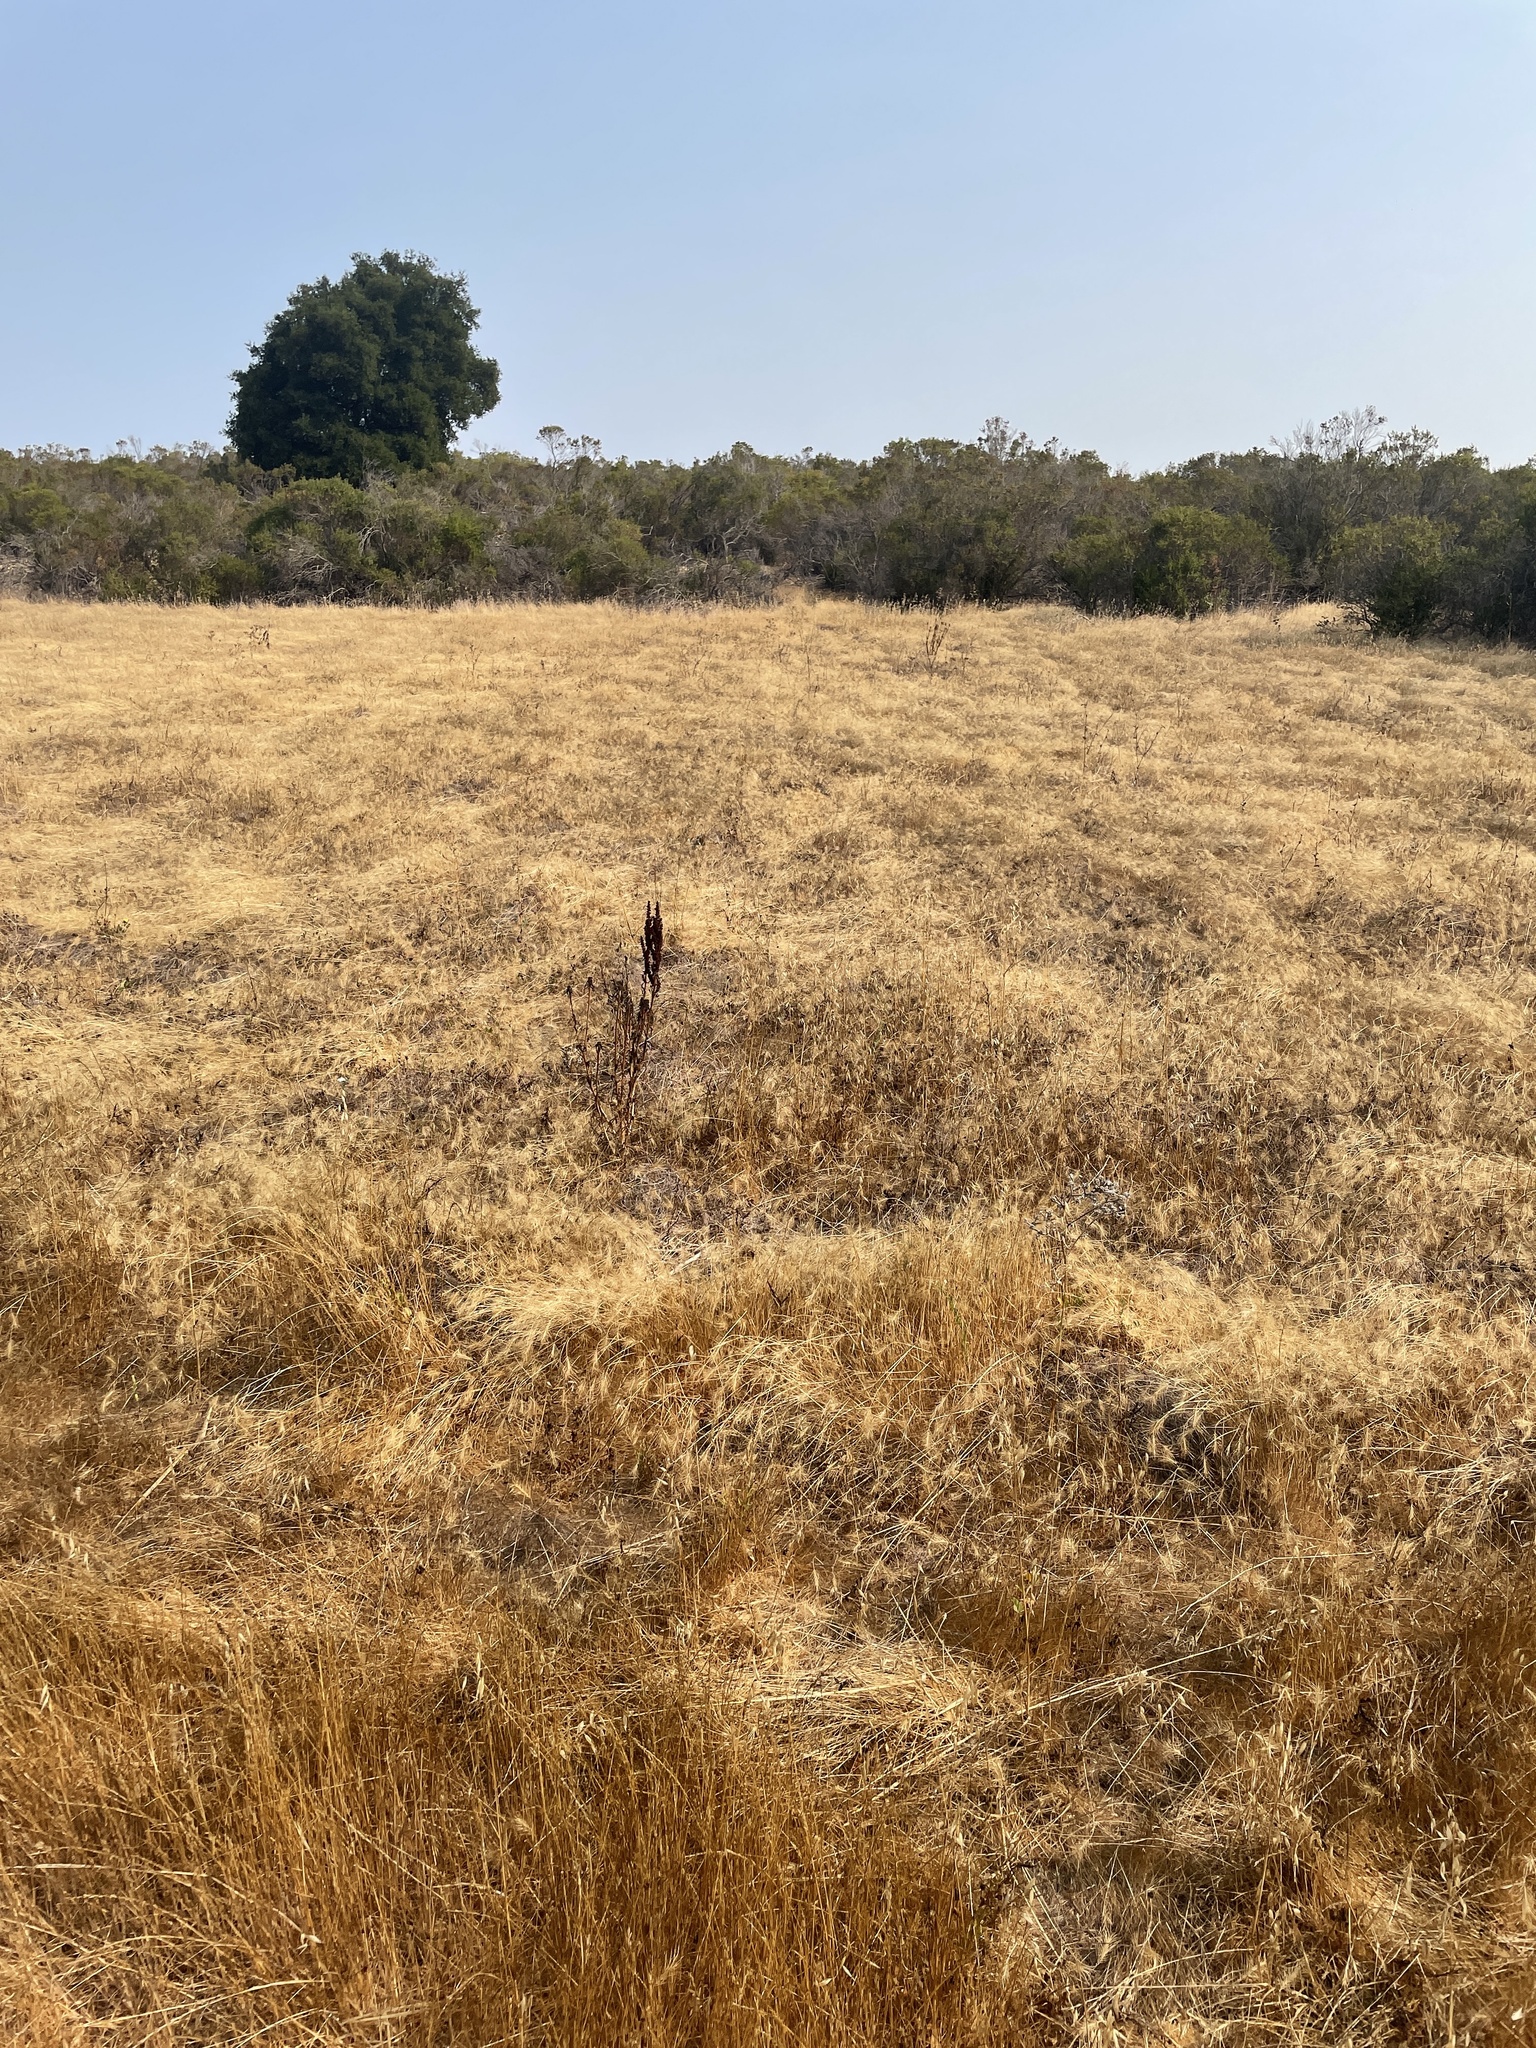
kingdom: Plantae
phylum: Tracheophyta
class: Liliopsida
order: Poales
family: Poaceae
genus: Taeniatherum
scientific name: Taeniatherum caput-medusae
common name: Medusahead
